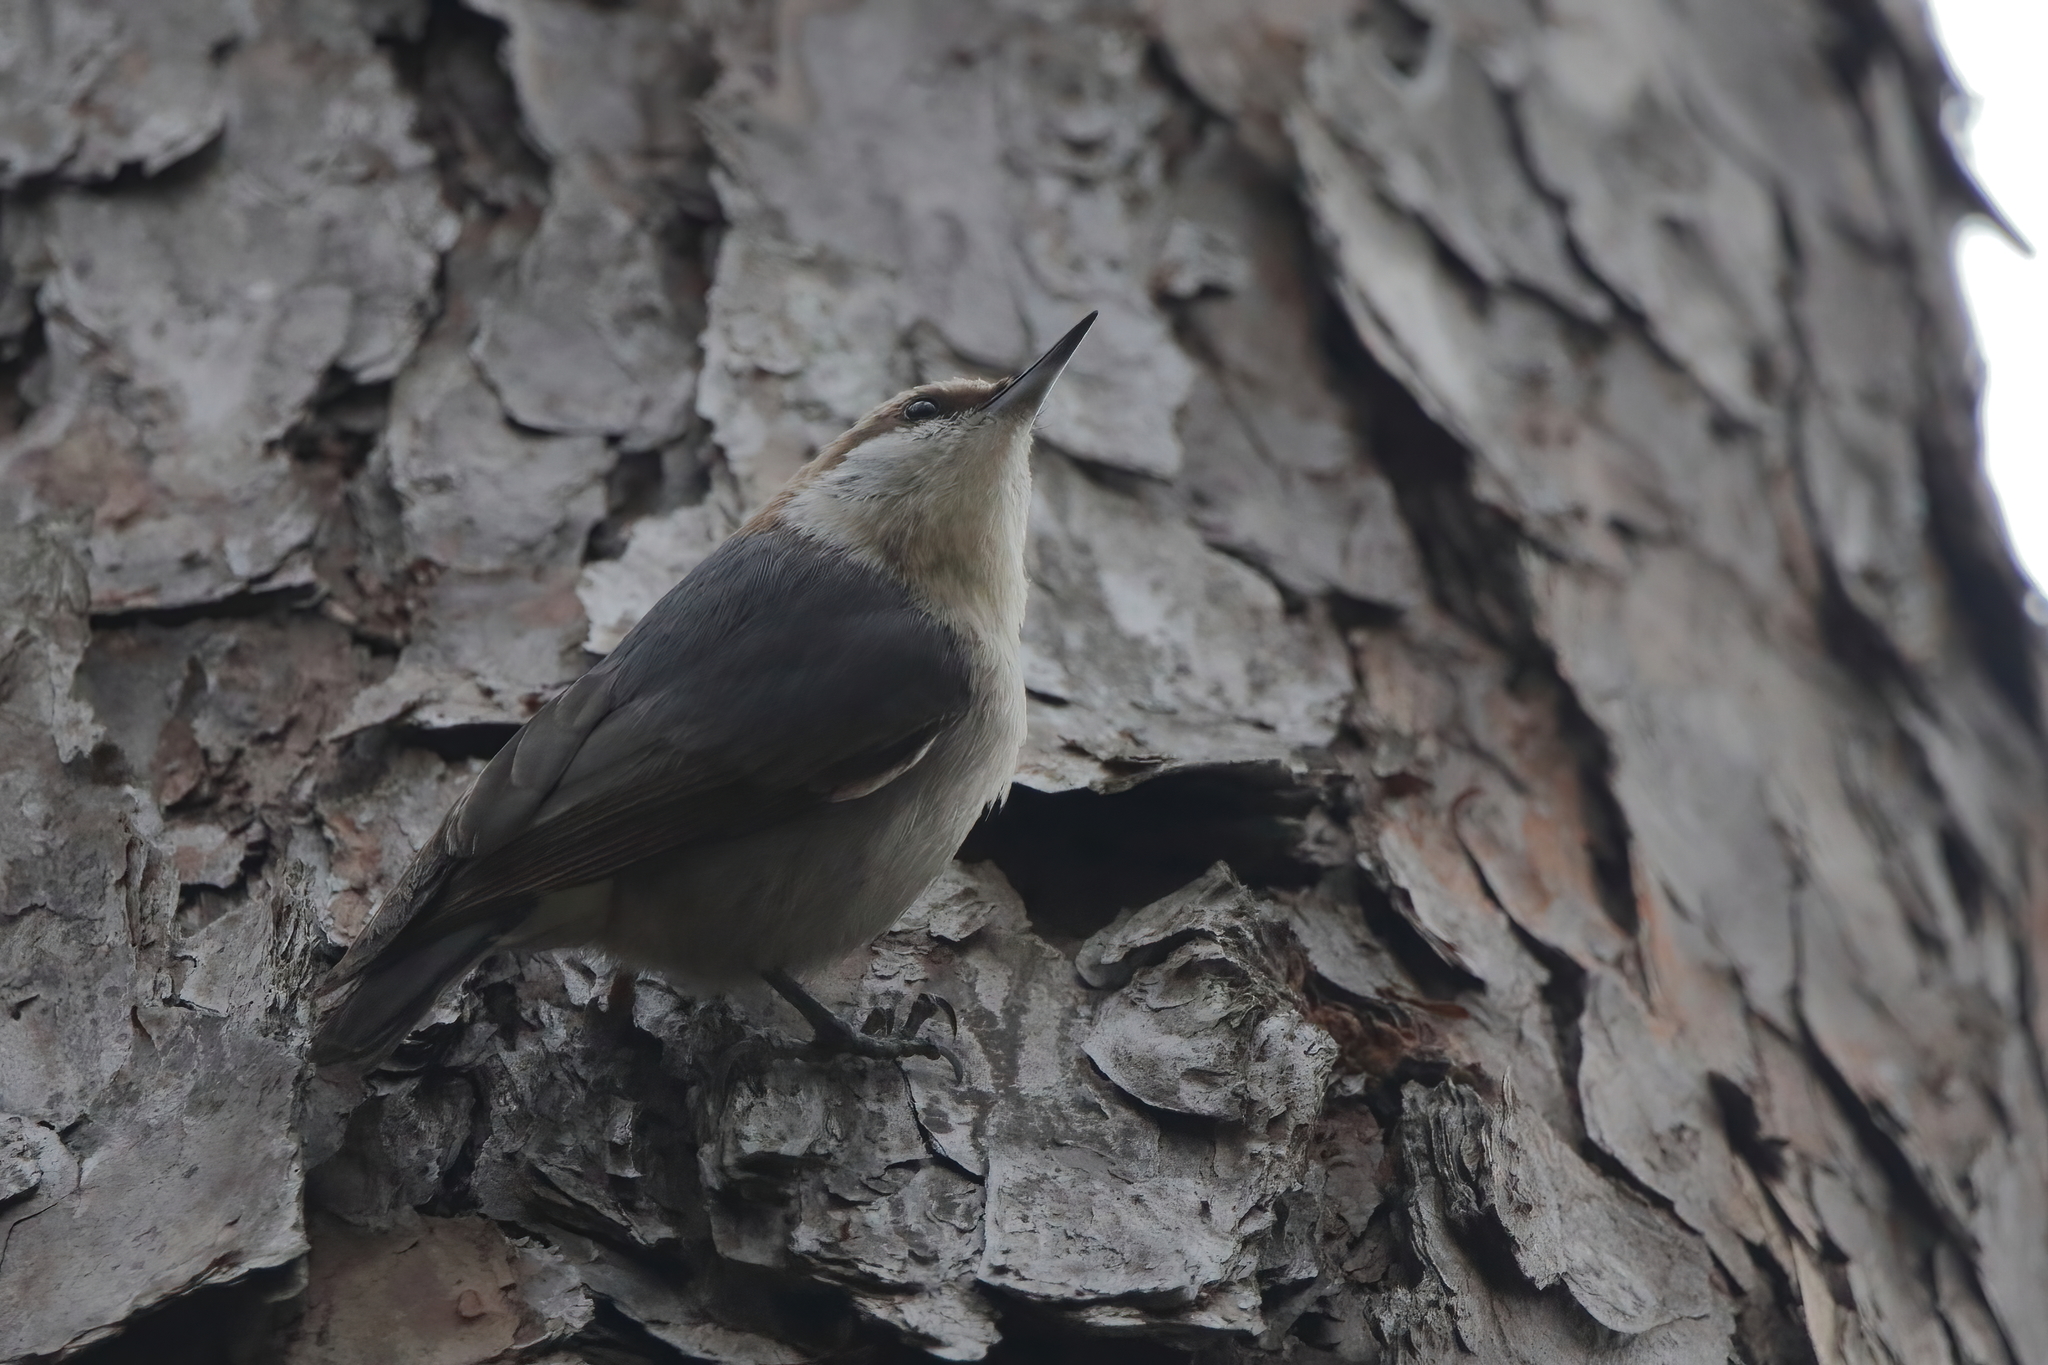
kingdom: Animalia
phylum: Chordata
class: Aves
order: Passeriformes
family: Sittidae
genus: Sitta
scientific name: Sitta pusilla
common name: Brown-headed nuthatch
